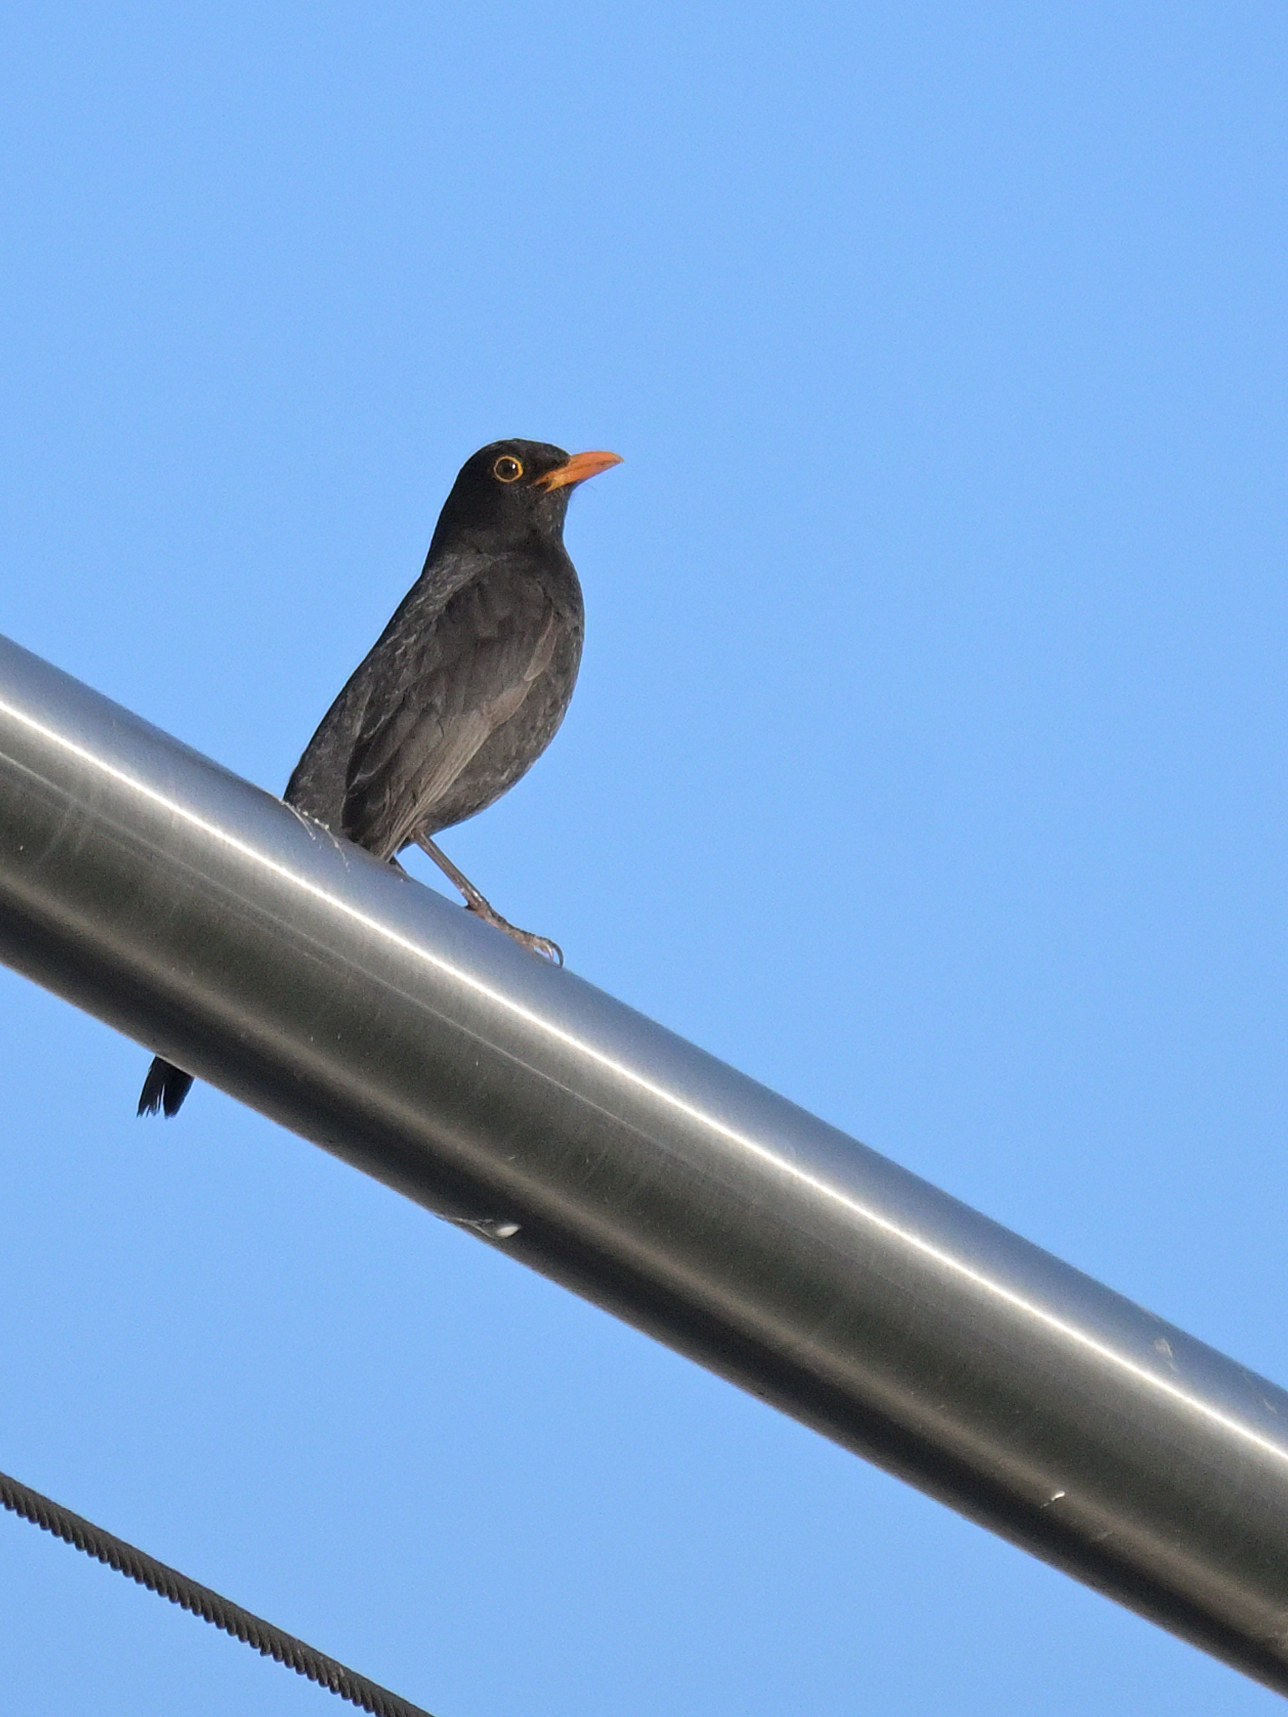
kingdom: Animalia
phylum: Chordata
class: Aves
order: Passeriformes
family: Turdidae
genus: Turdus
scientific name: Turdus merula
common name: Common blackbird
